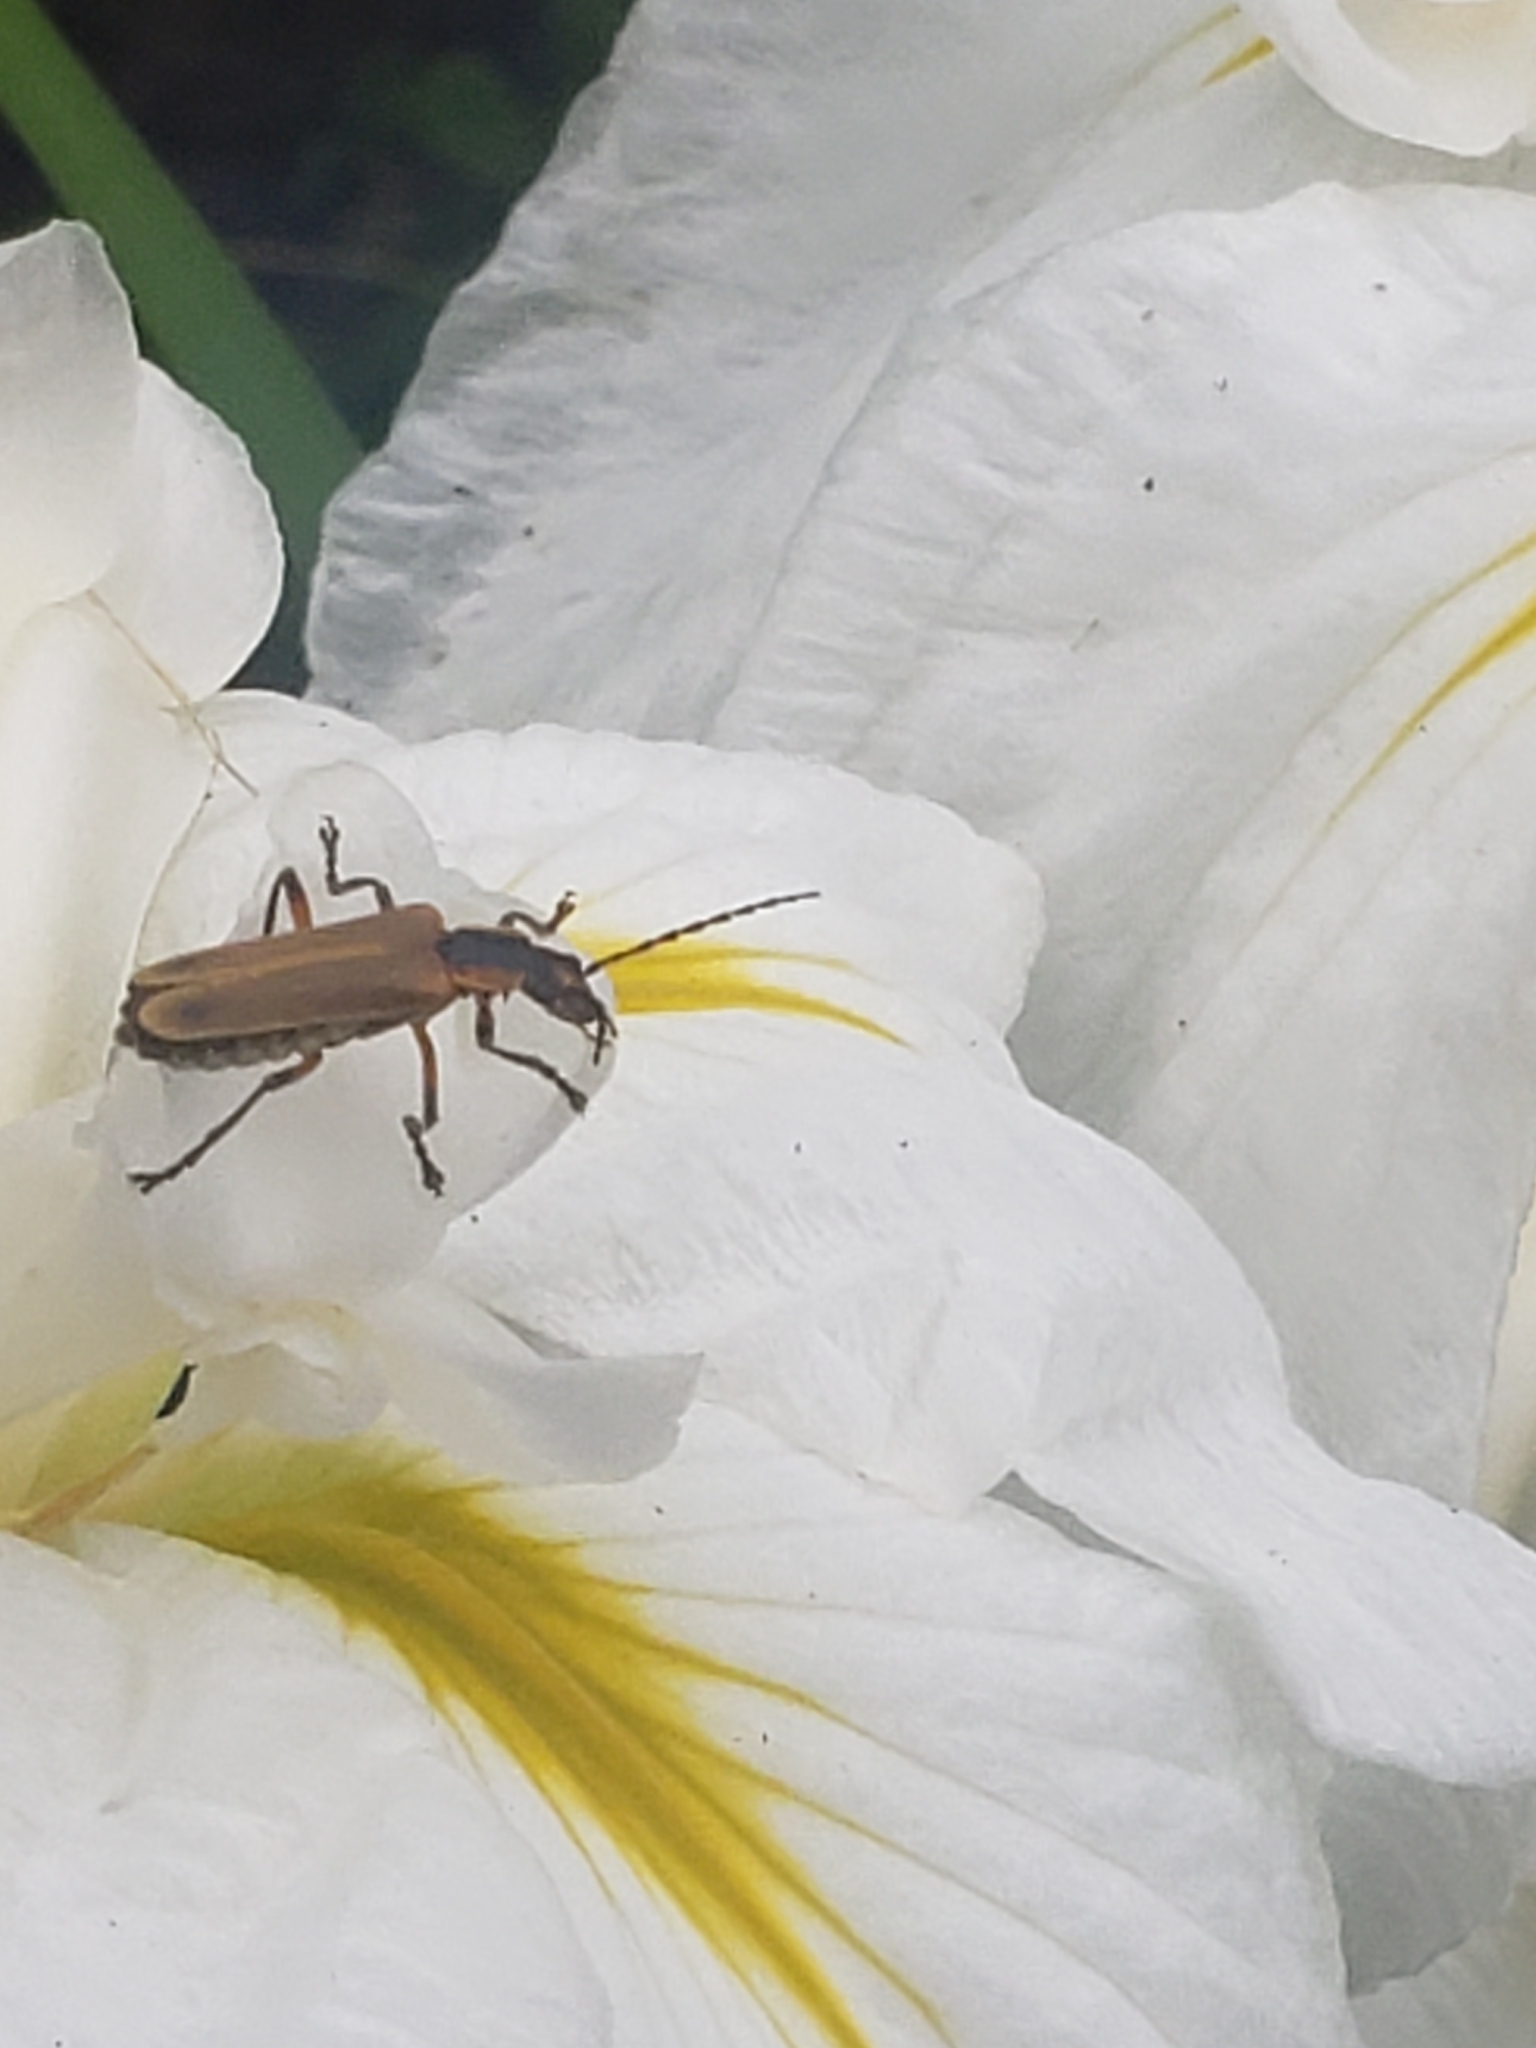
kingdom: Animalia
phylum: Arthropoda
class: Insecta
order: Coleoptera
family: Cantharidae
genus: Chauliognathus
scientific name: Chauliognathus marginatus
